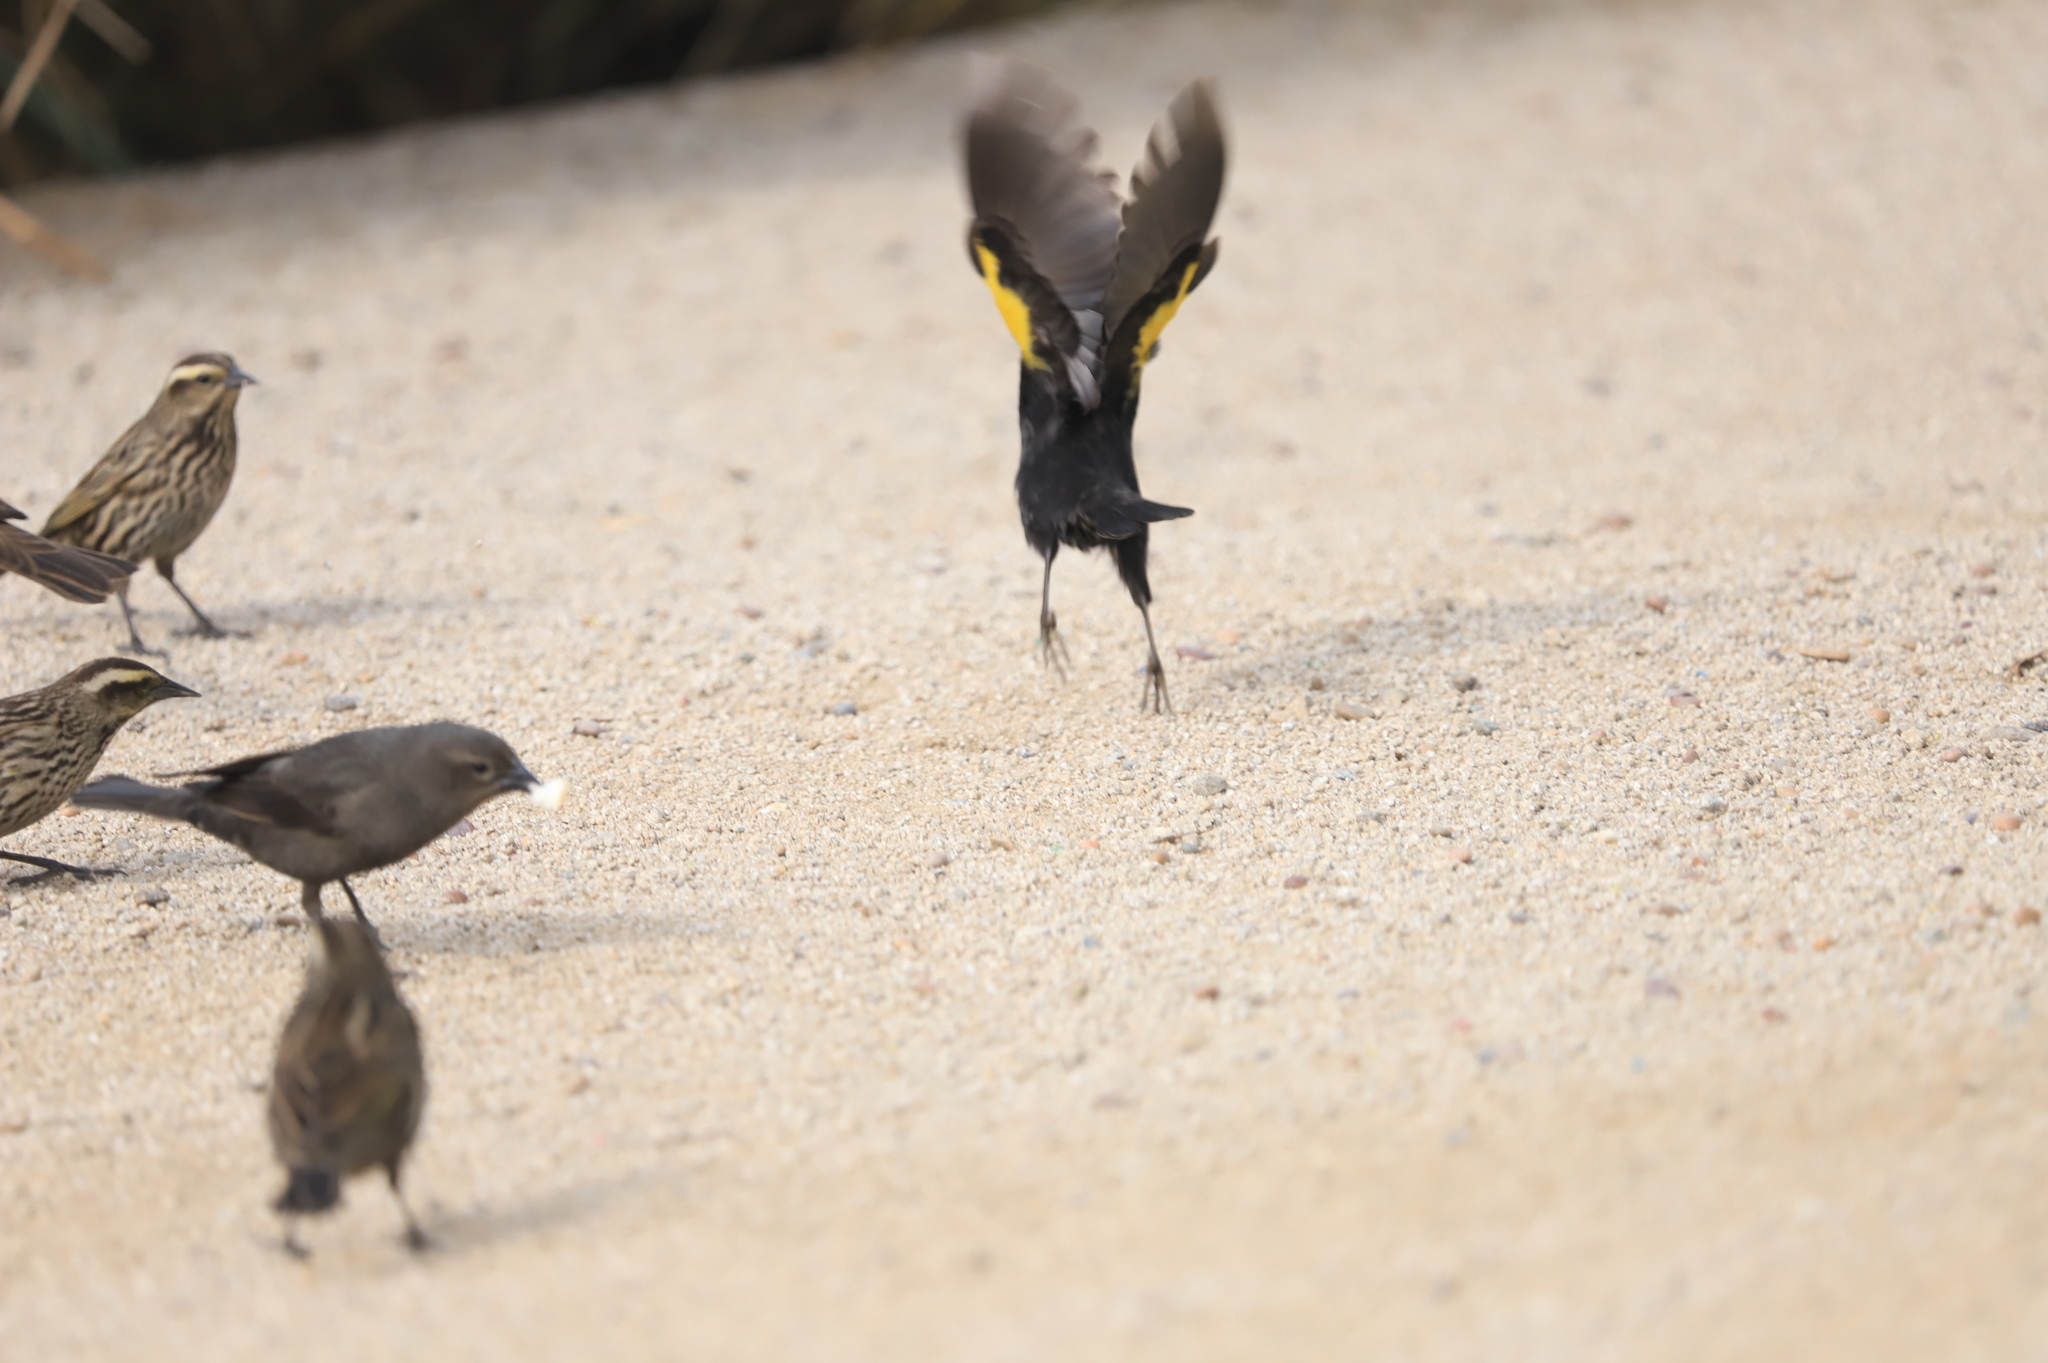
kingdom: Animalia
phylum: Chordata
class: Aves
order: Passeriformes
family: Icteridae
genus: Agelasticus
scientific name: Agelasticus thilius
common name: Yellow-winged blackbird
